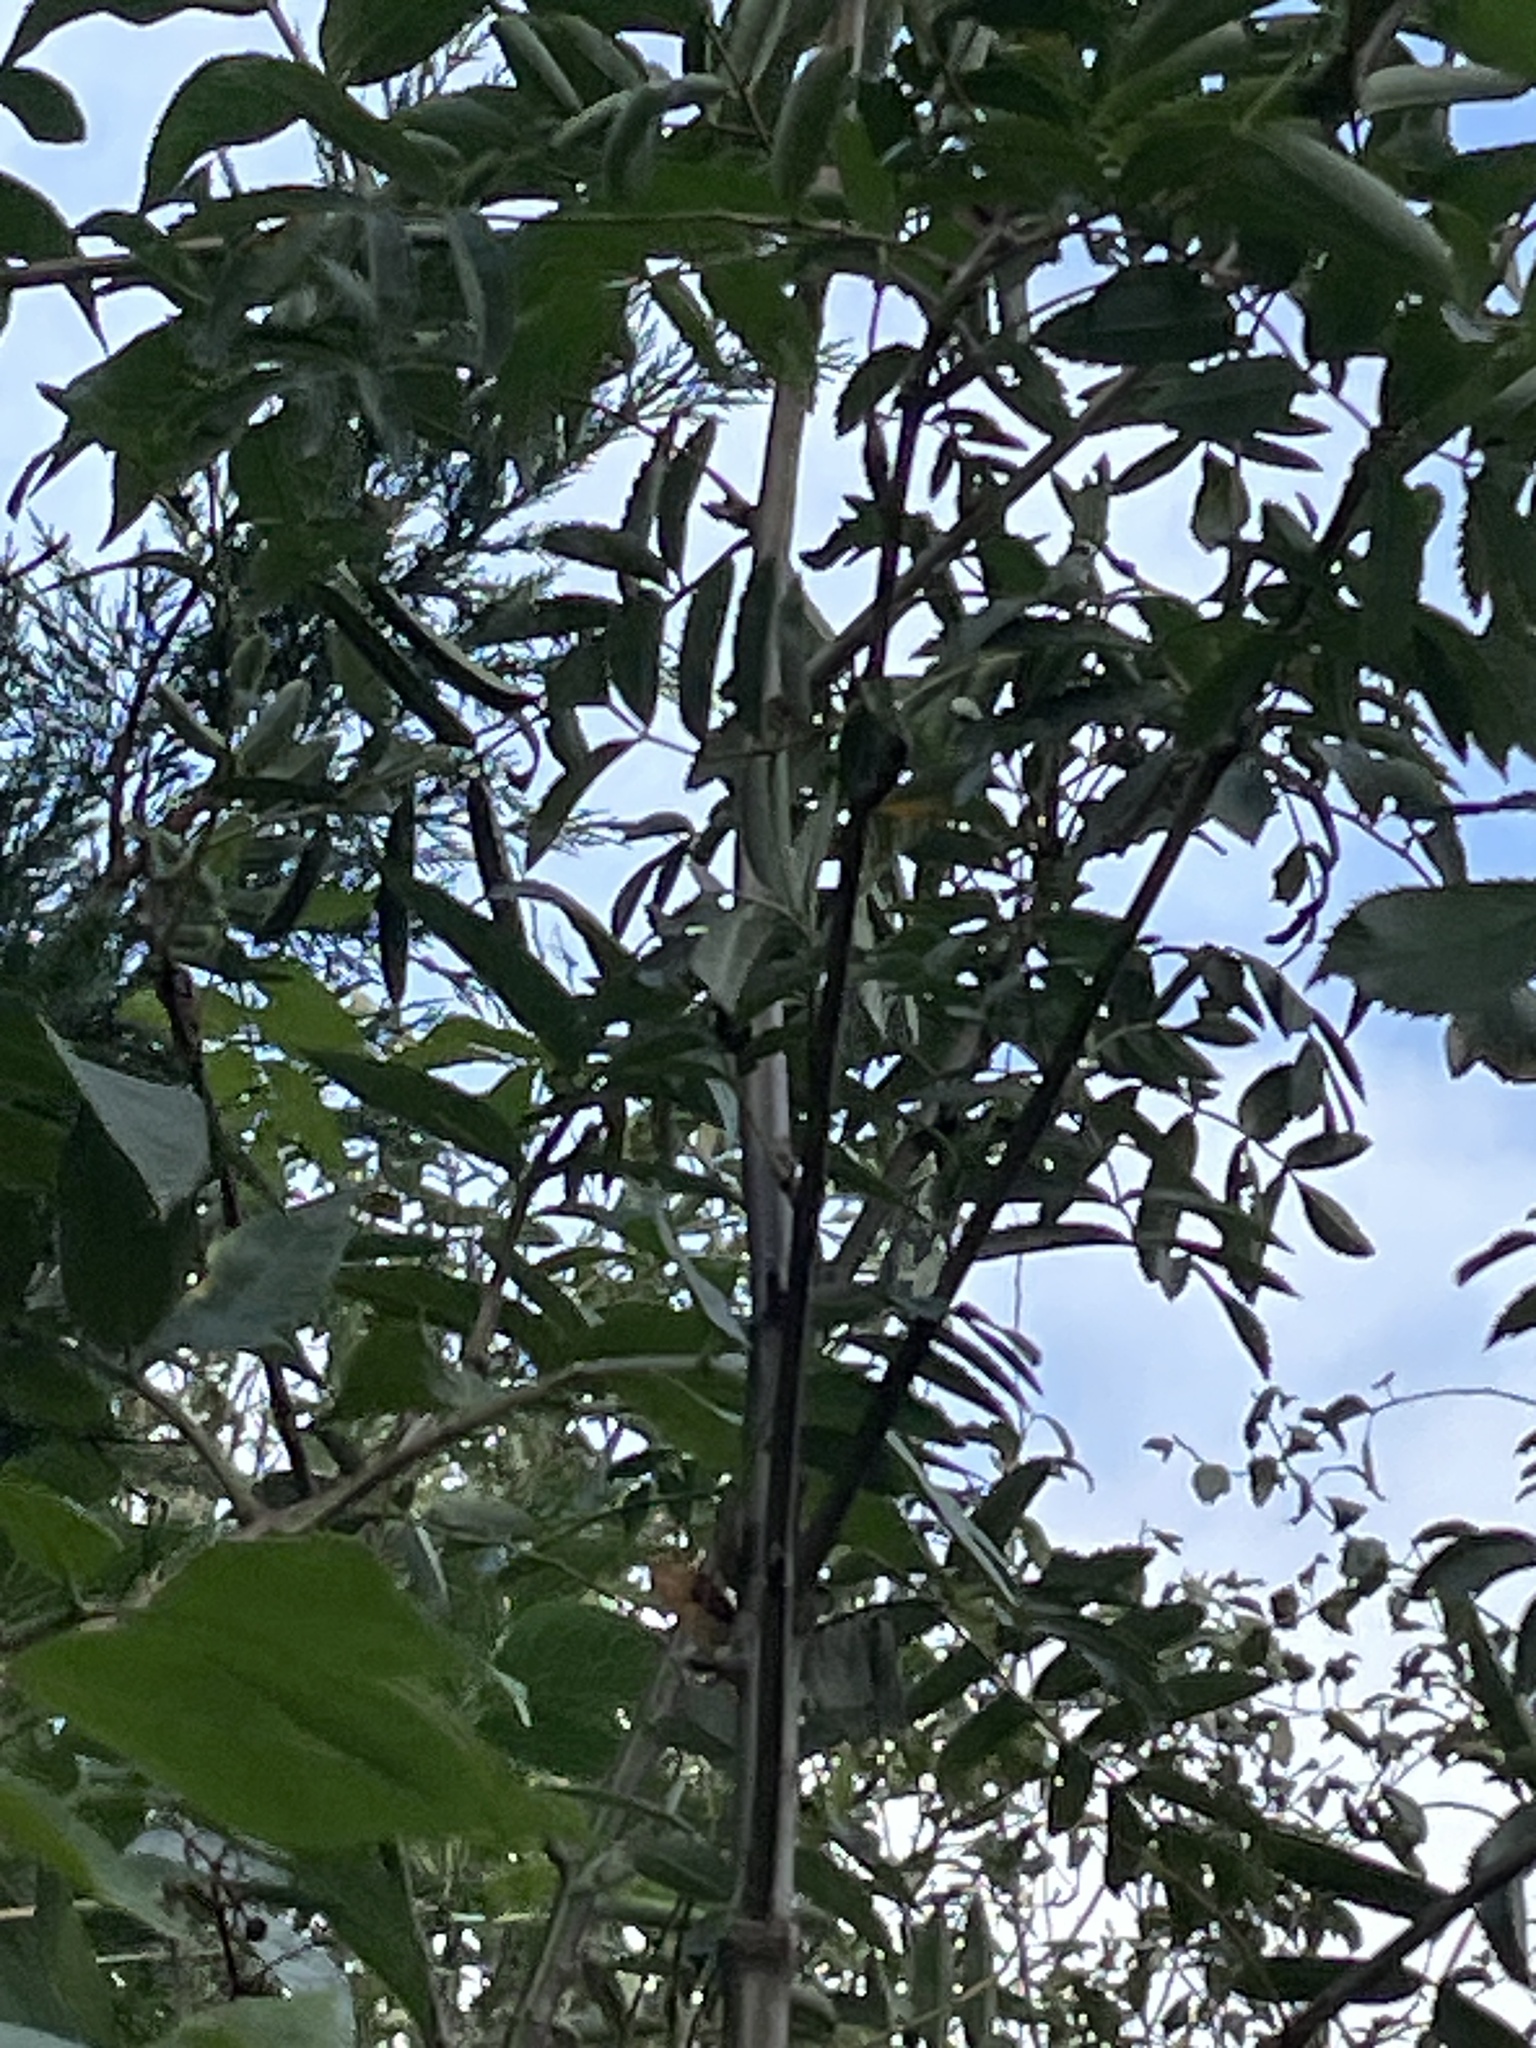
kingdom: Plantae
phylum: Tracheophyta
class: Magnoliopsida
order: Rosales
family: Rosaceae
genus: Sorbus
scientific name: Sorbus aucuparia
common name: Rowan
